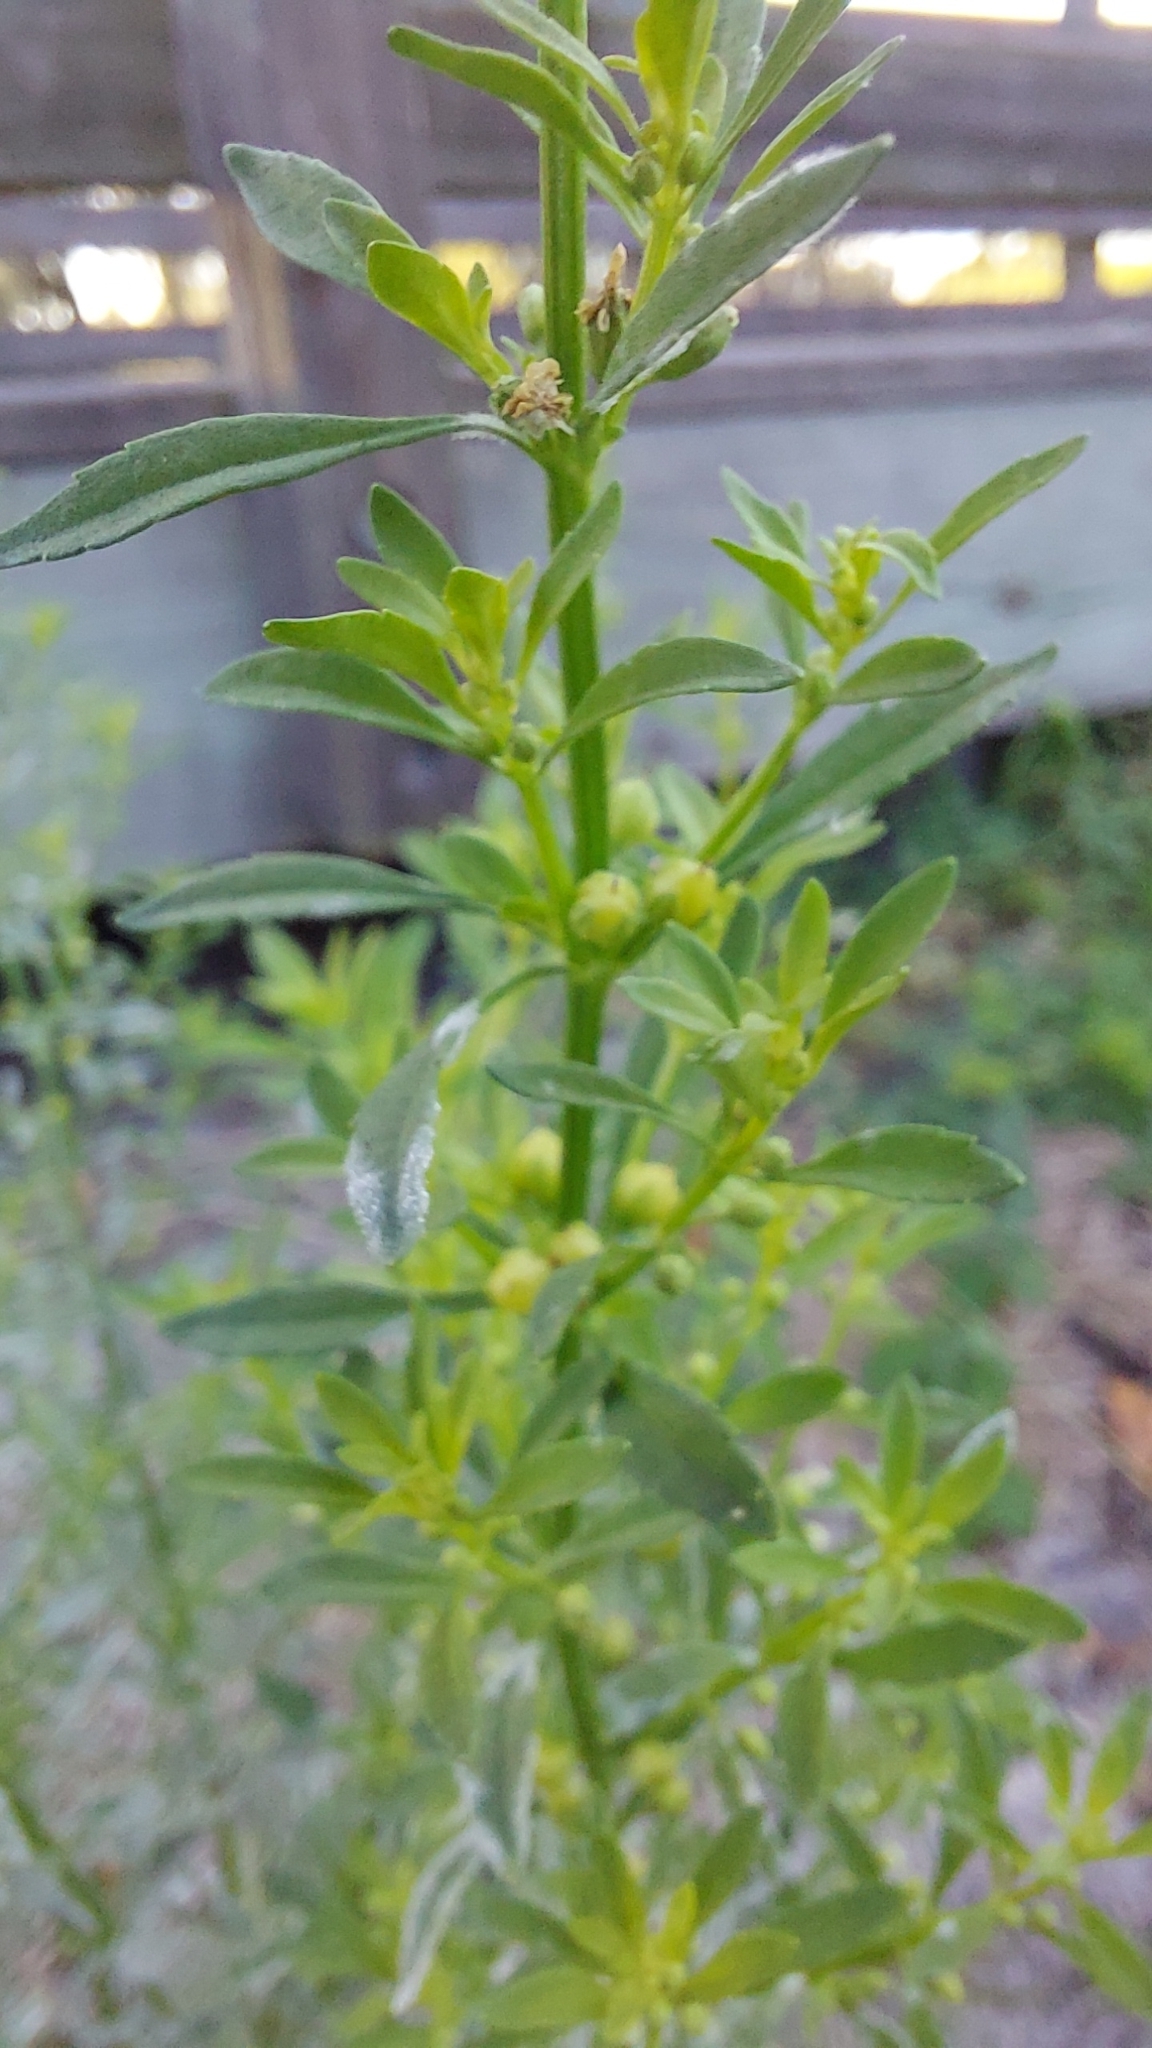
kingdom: Plantae
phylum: Tracheophyta
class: Magnoliopsida
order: Lamiales
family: Plantaginaceae
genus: Scoparia
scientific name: Scoparia dulcis
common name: Scoparia-weed
